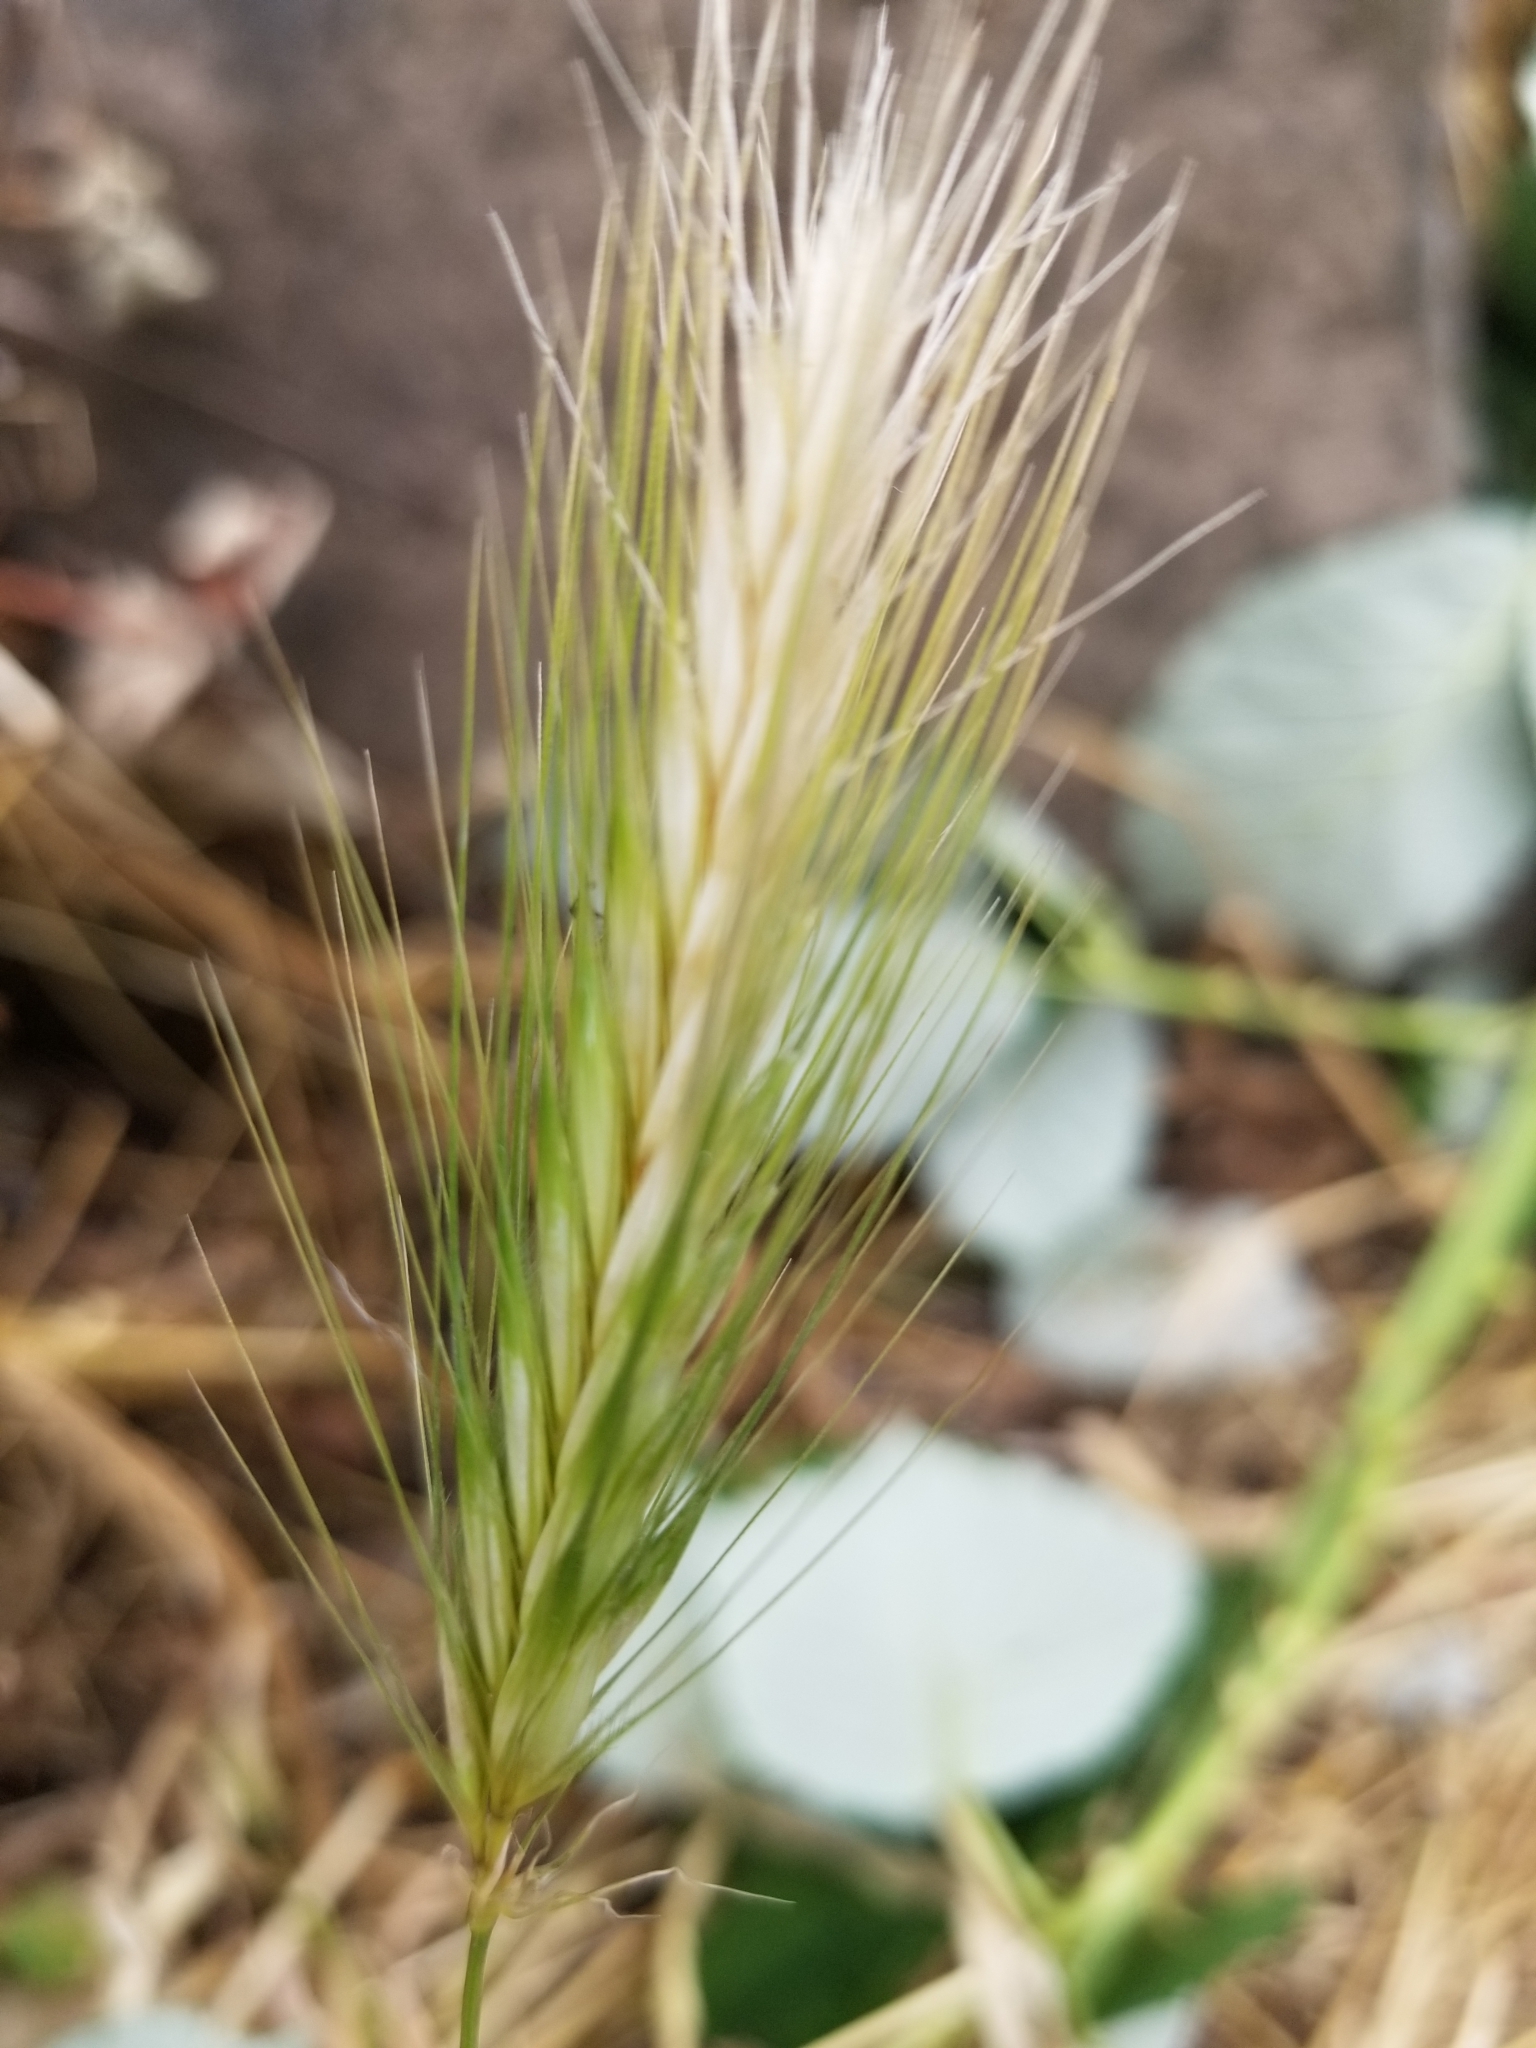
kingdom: Plantae
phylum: Tracheophyta
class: Liliopsida
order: Poales
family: Poaceae
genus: Hordeum
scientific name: Hordeum jubatum
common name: Foxtail barley
